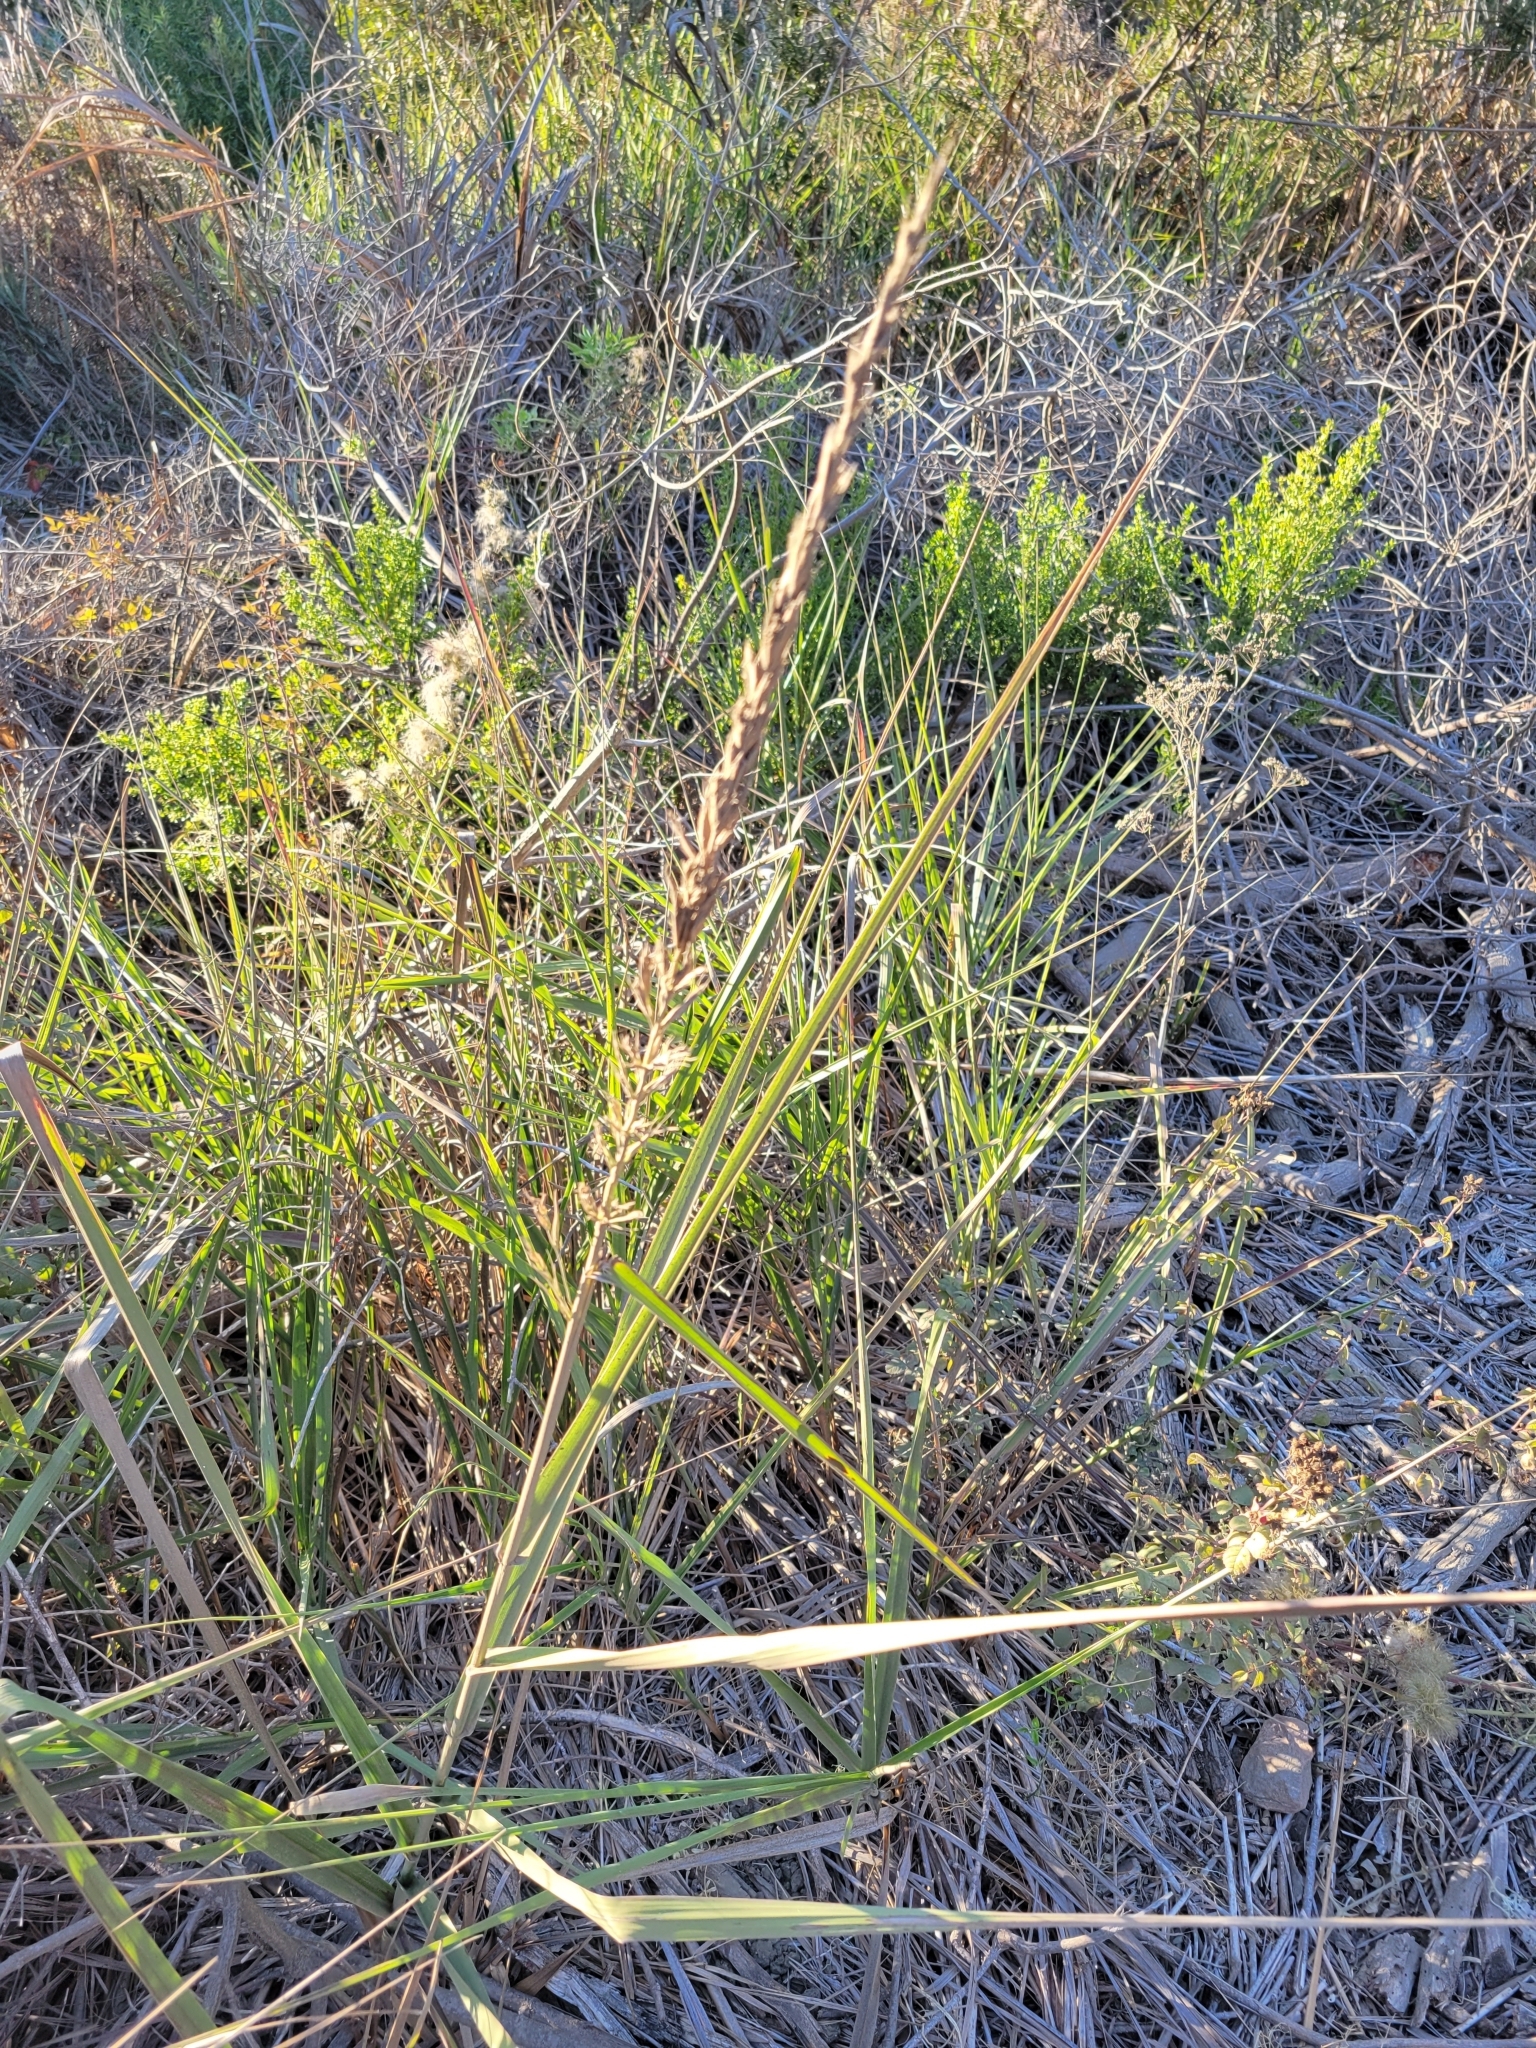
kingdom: Plantae
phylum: Tracheophyta
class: Liliopsida
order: Poales
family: Poaceae
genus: Leymus
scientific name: Leymus condensatus
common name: Giant wild rye
